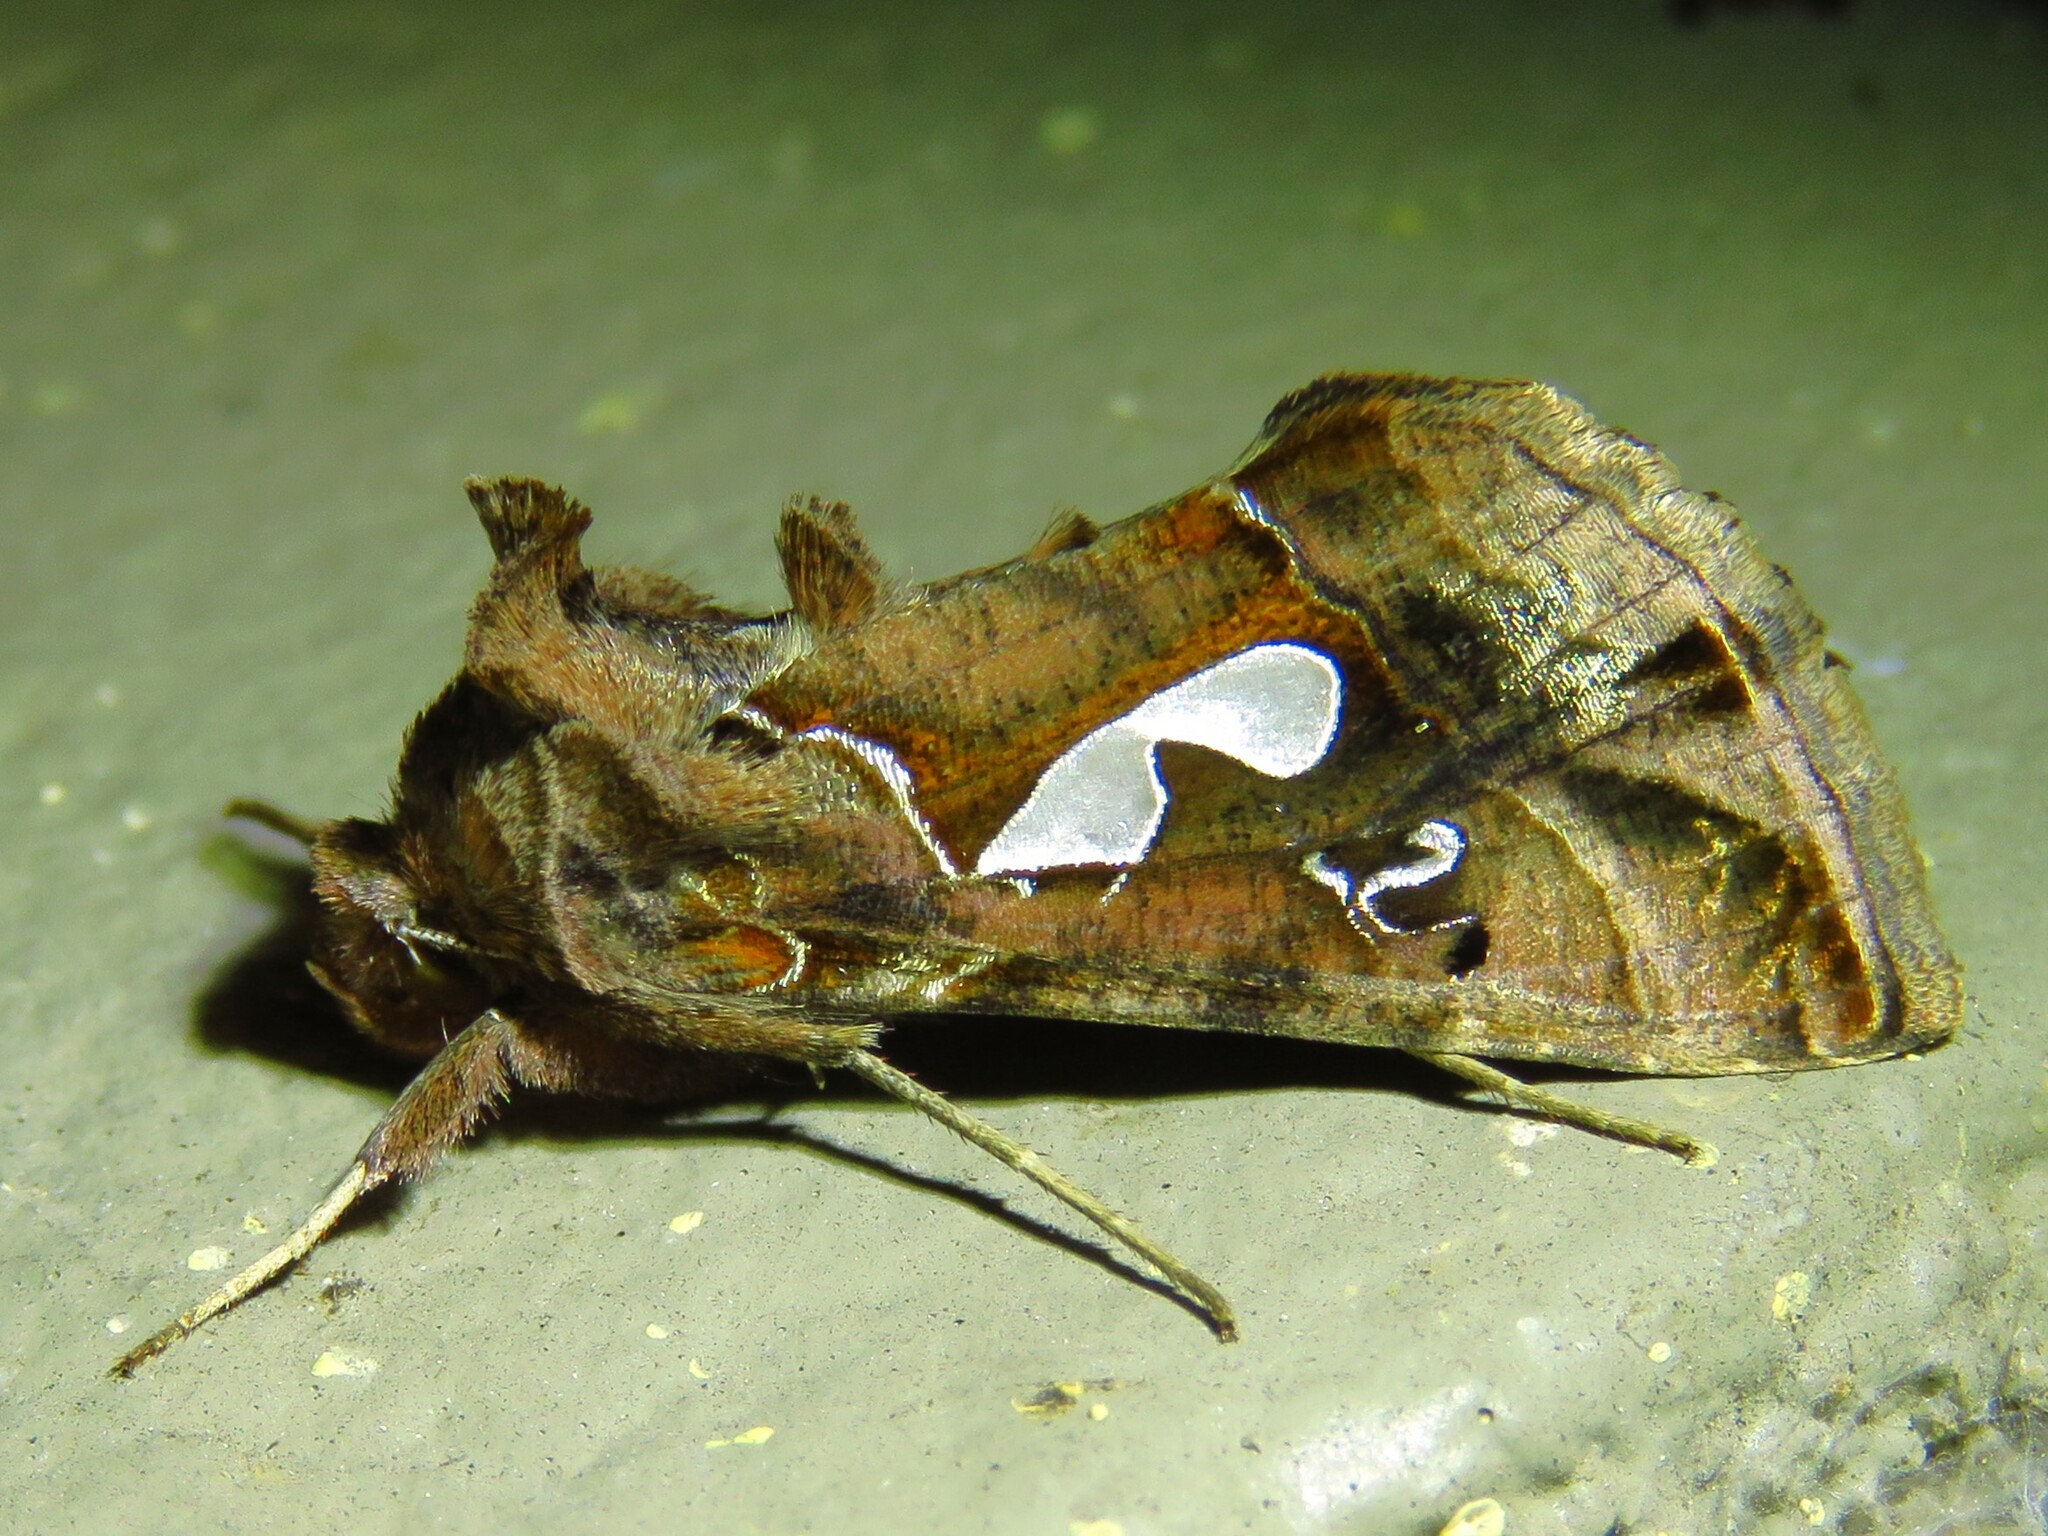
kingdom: Animalia
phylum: Arthropoda
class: Insecta
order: Lepidoptera
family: Noctuidae
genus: Megalographa
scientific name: Megalographa biloba
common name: Cutworm
